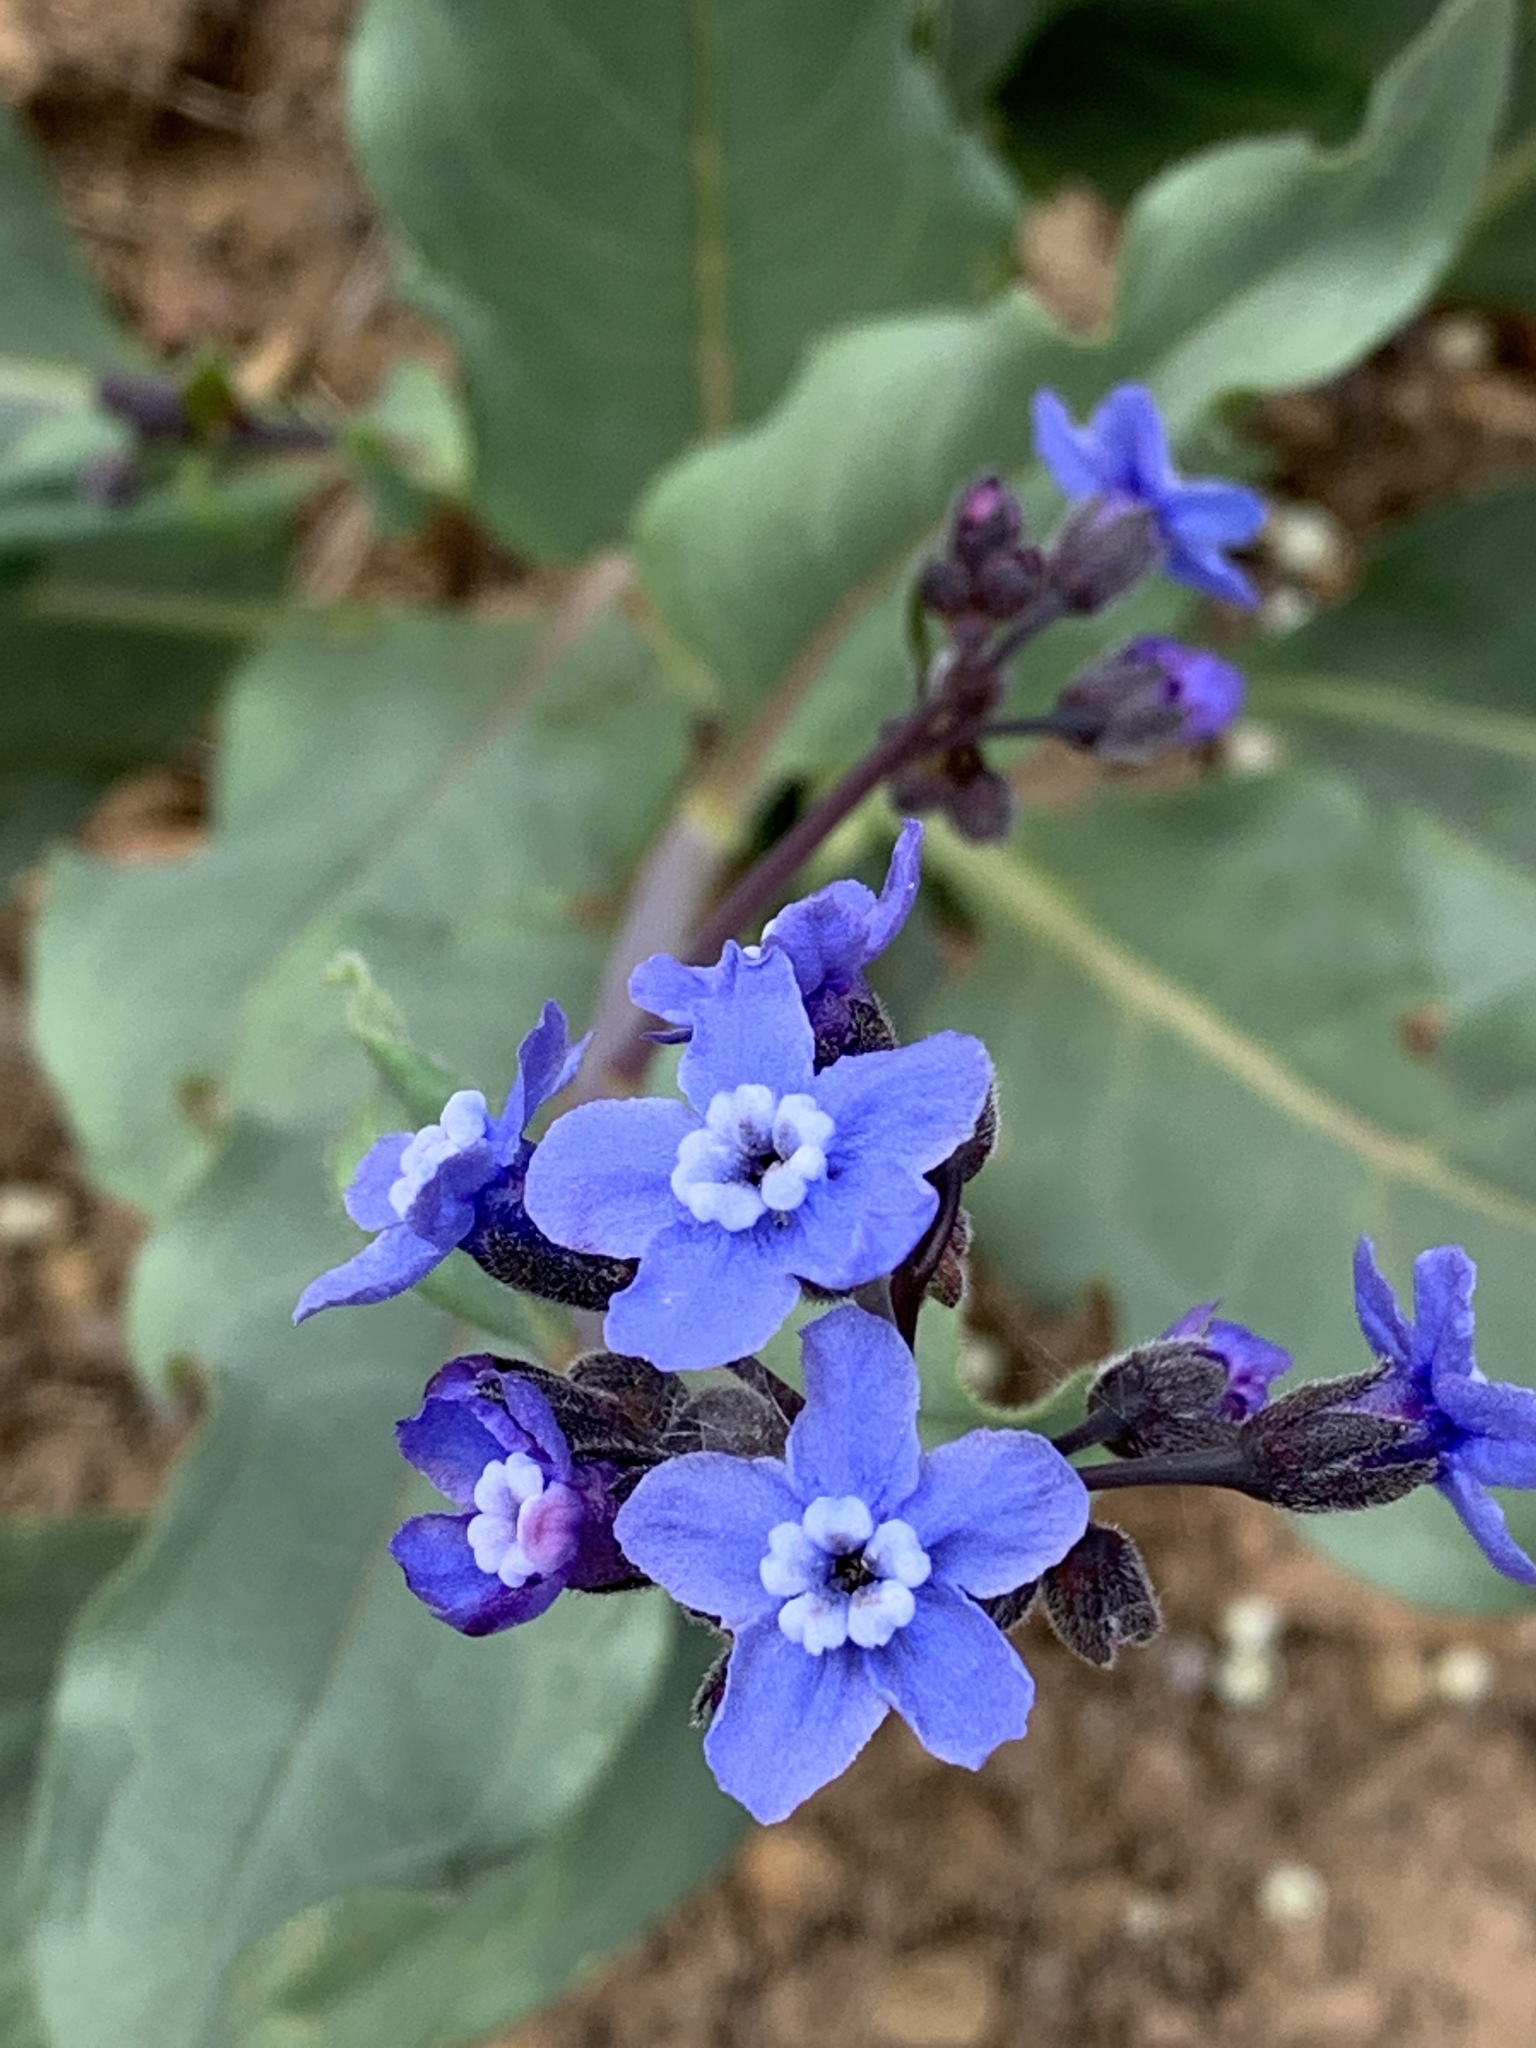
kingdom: Plantae
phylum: Tracheophyta
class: Magnoliopsida
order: Boraginales
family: Boraginaceae
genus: Adelinia
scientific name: Adelinia grande
